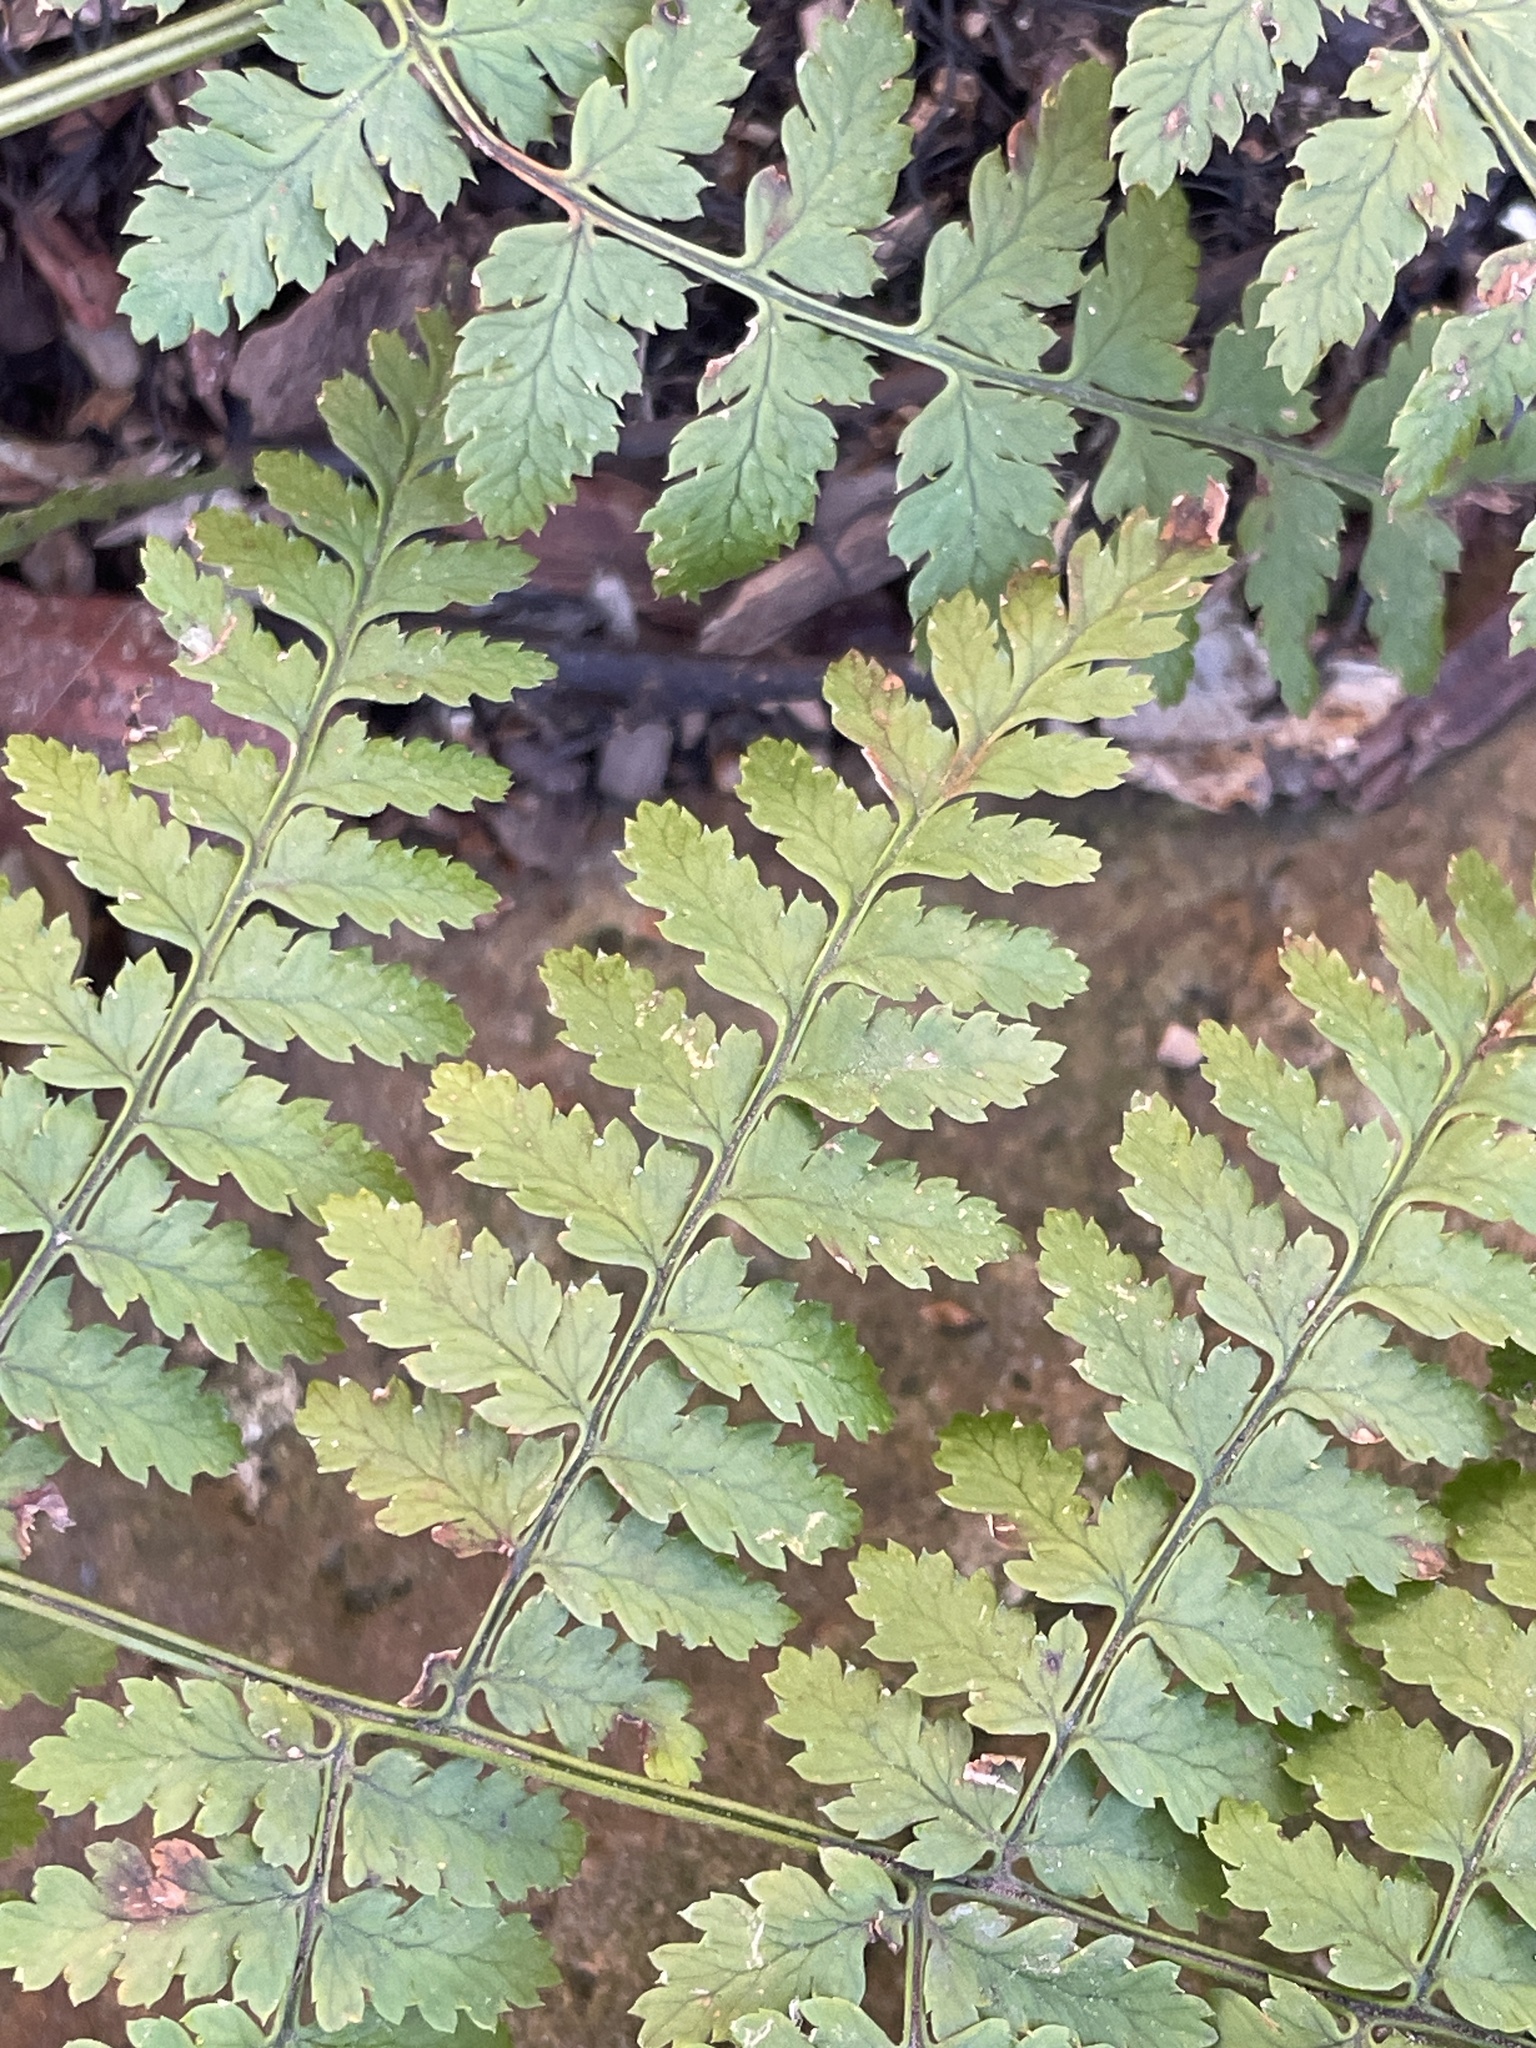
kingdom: Plantae
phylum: Tracheophyta
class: Polypodiopsida
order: Polypodiales
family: Dryopteridaceae
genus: Dryopteris
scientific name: Dryopteris intermedia
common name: Evergreen wood fern
